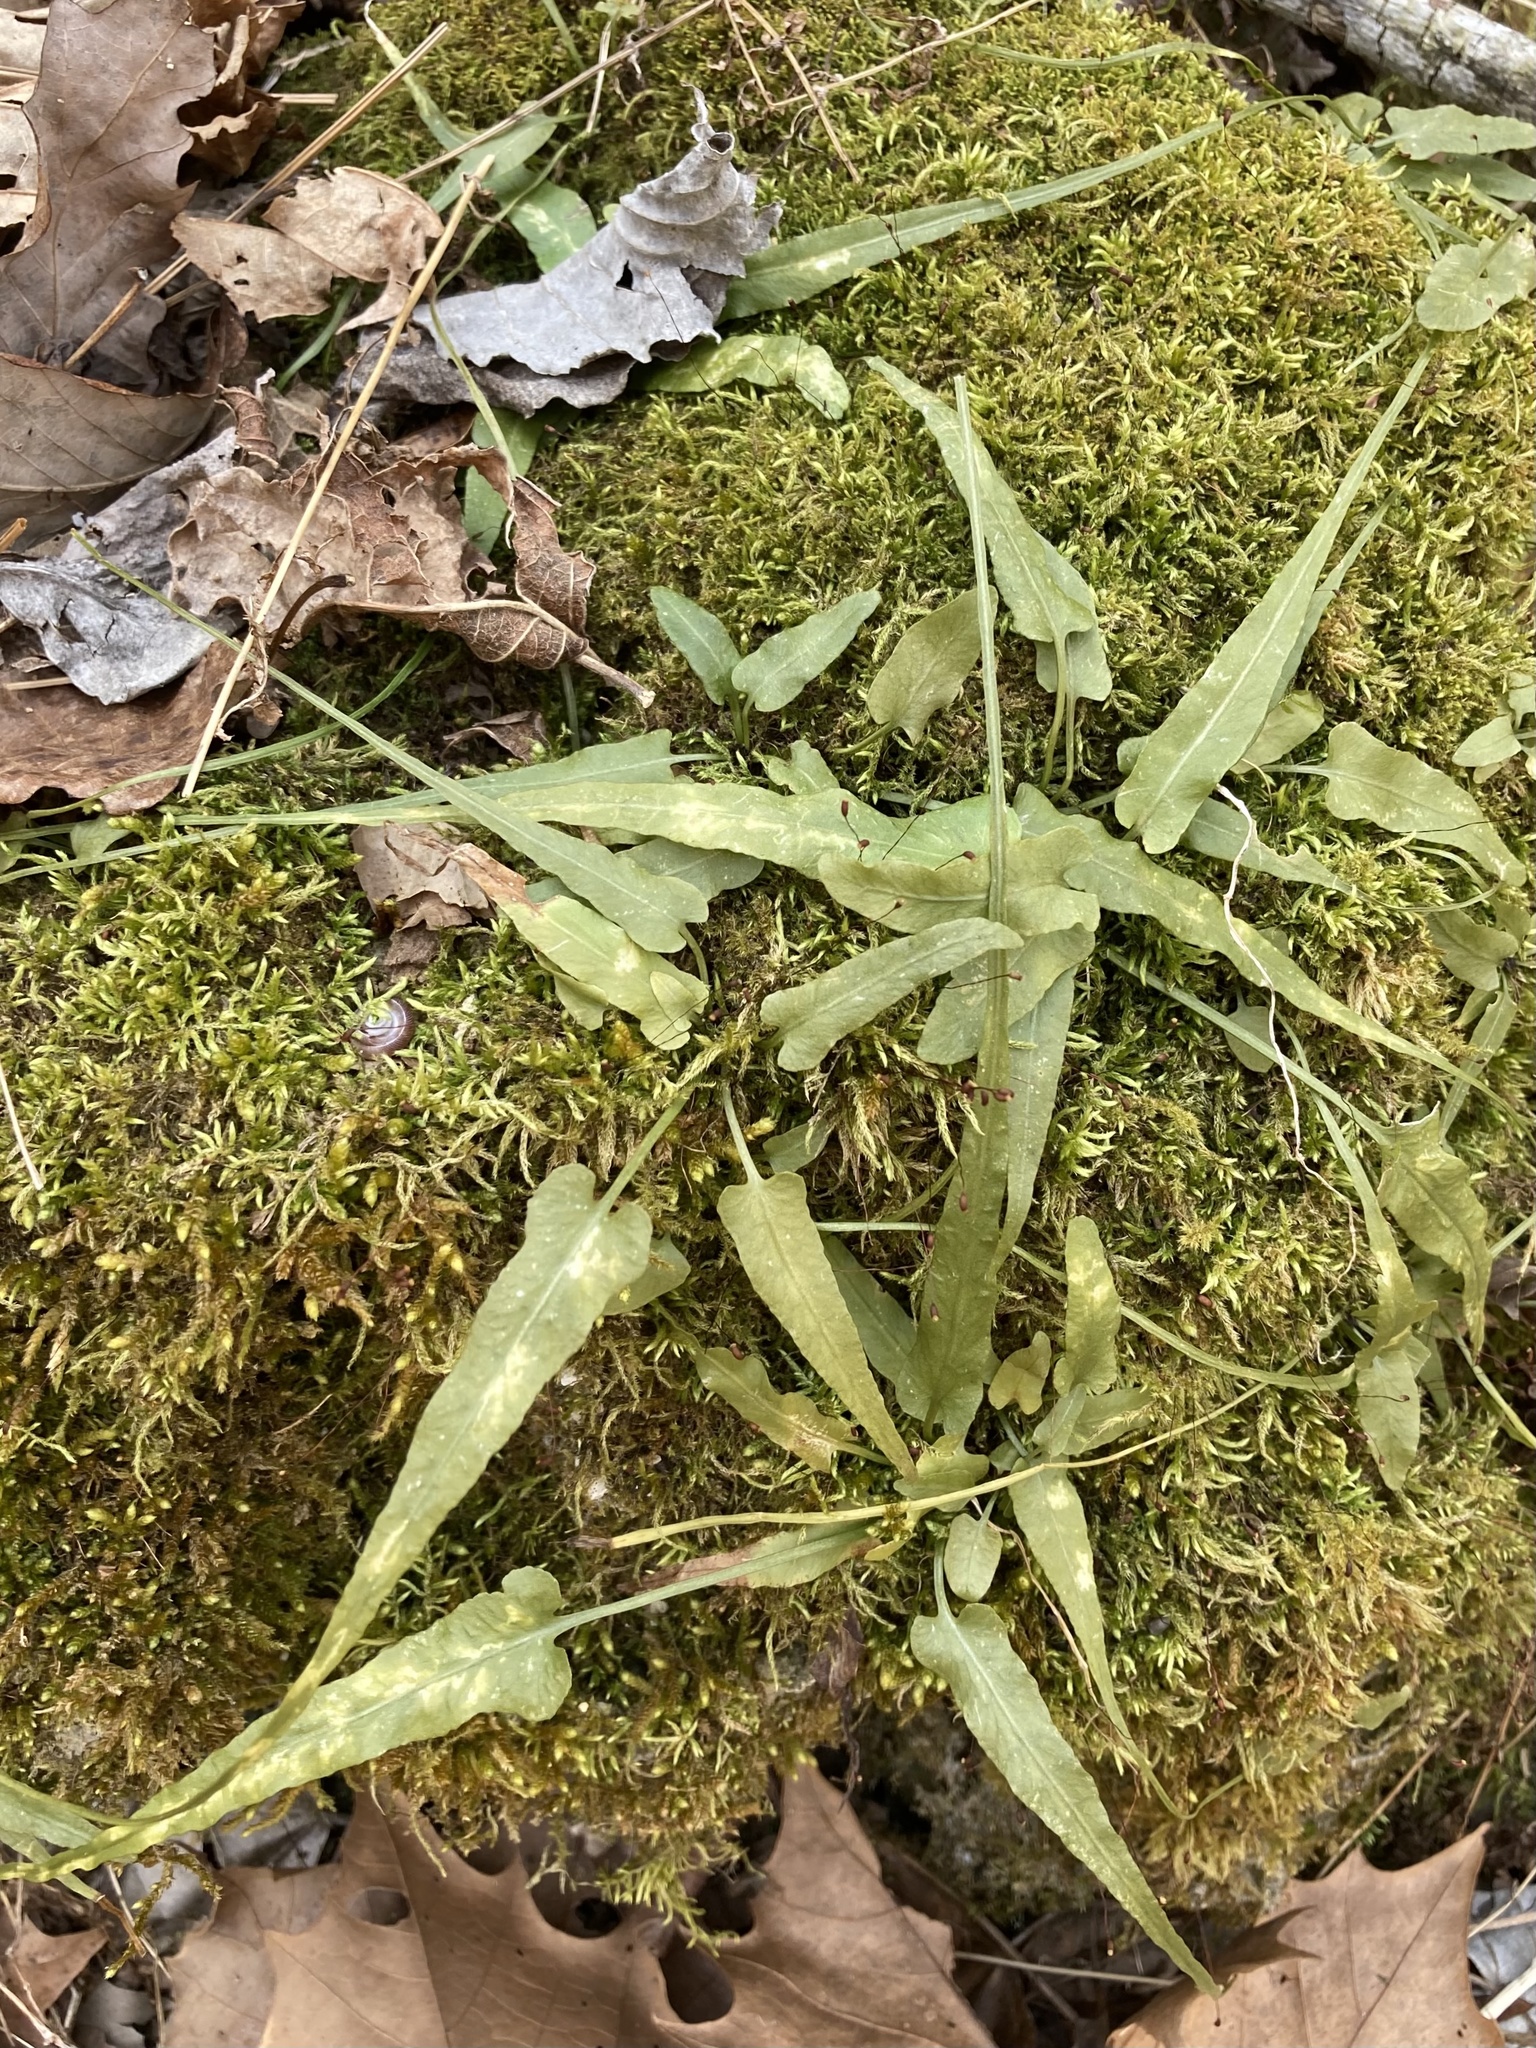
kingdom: Plantae
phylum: Tracheophyta
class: Polypodiopsida
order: Polypodiales
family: Aspleniaceae
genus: Asplenium
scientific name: Asplenium rhizophyllum
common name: Walking fern
